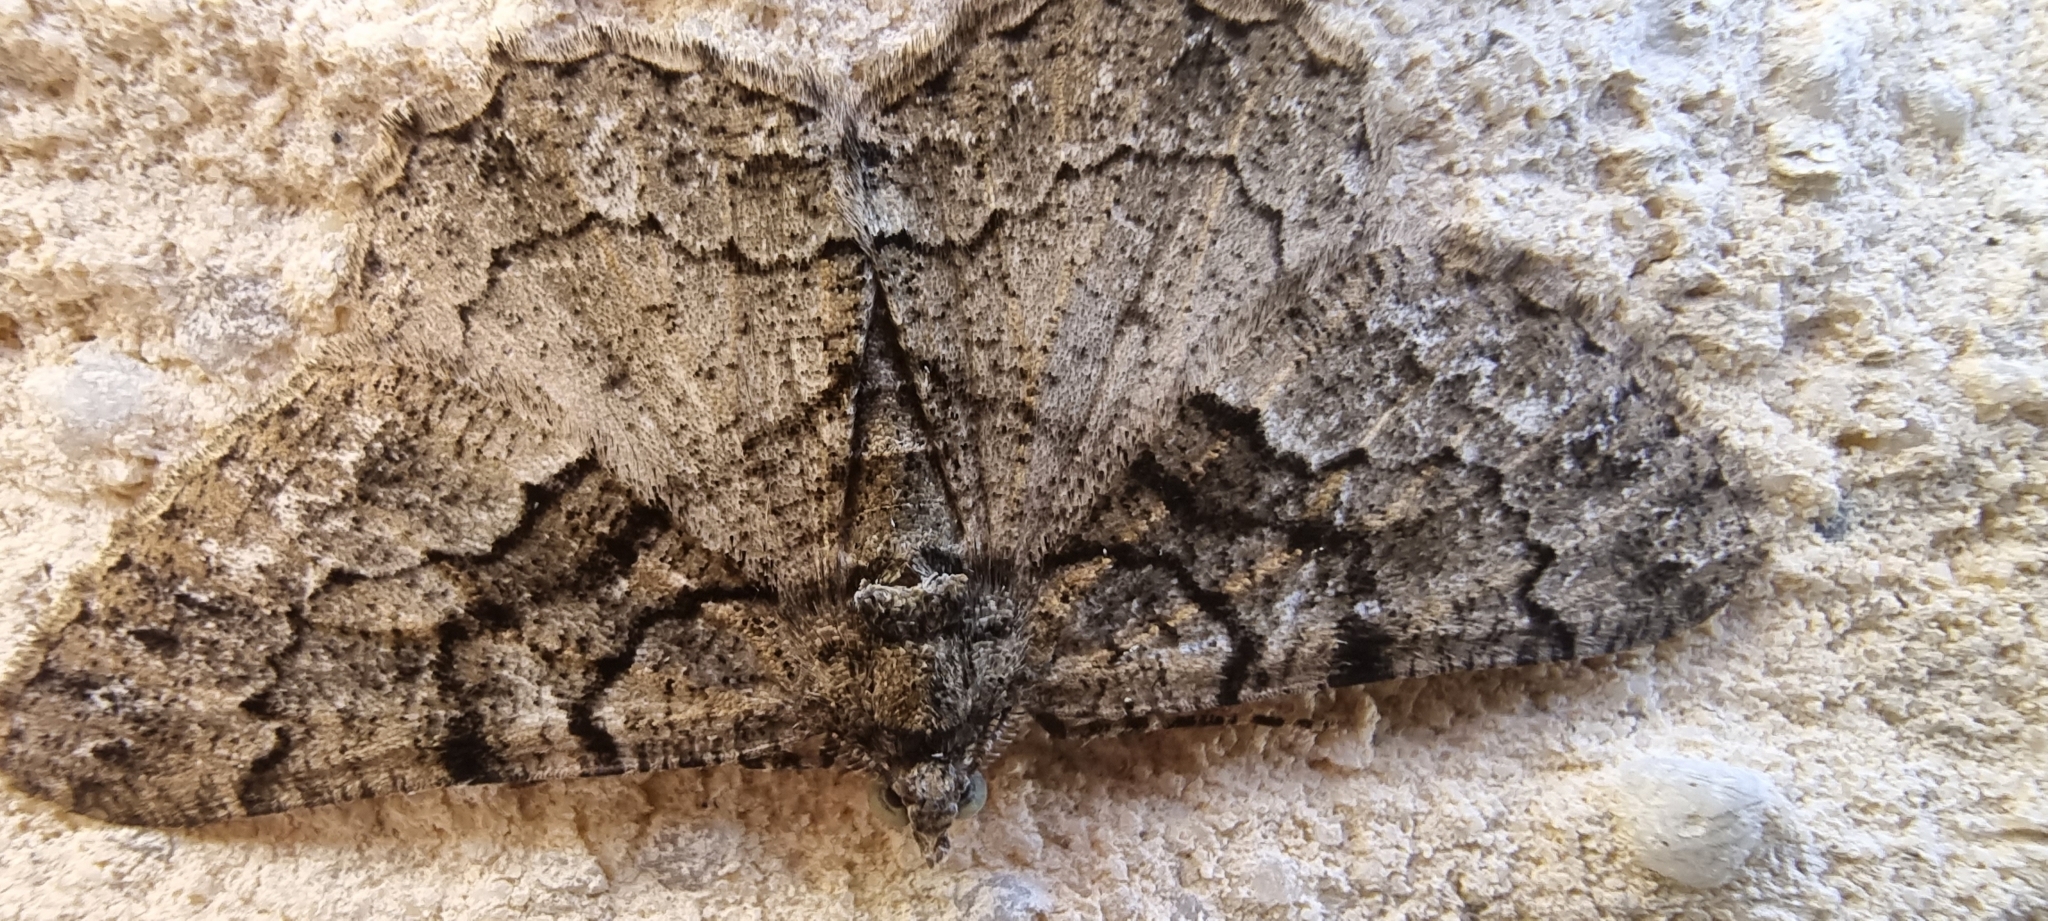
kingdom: Animalia
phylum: Arthropoda
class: Insecta
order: Lepidoptera
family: Geometridae
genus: Peribatodes
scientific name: Peribatodes ilicaria
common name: Lydd beauty
